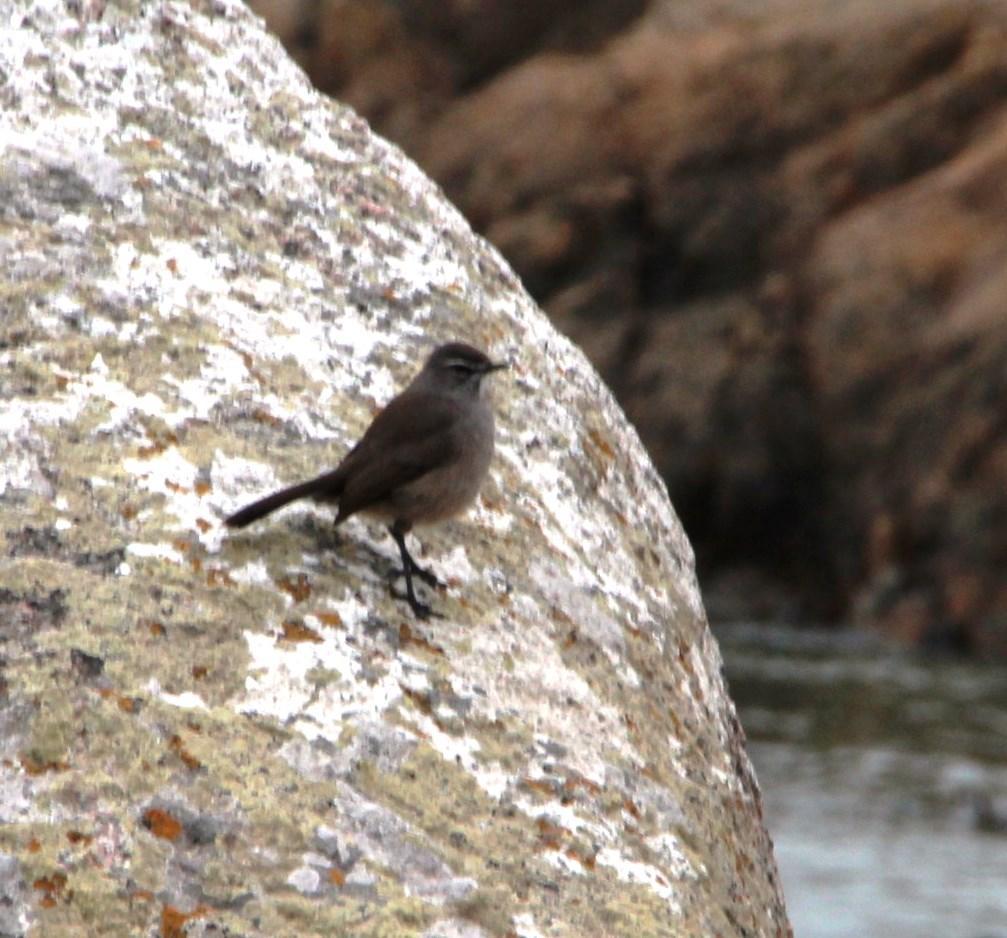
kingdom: Animalia
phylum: Chordata
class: Aves
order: Passeriformes
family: Muscicapidae
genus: Erythropygia
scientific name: Erythropygia coryphoeus
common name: Karoo scrub robin
